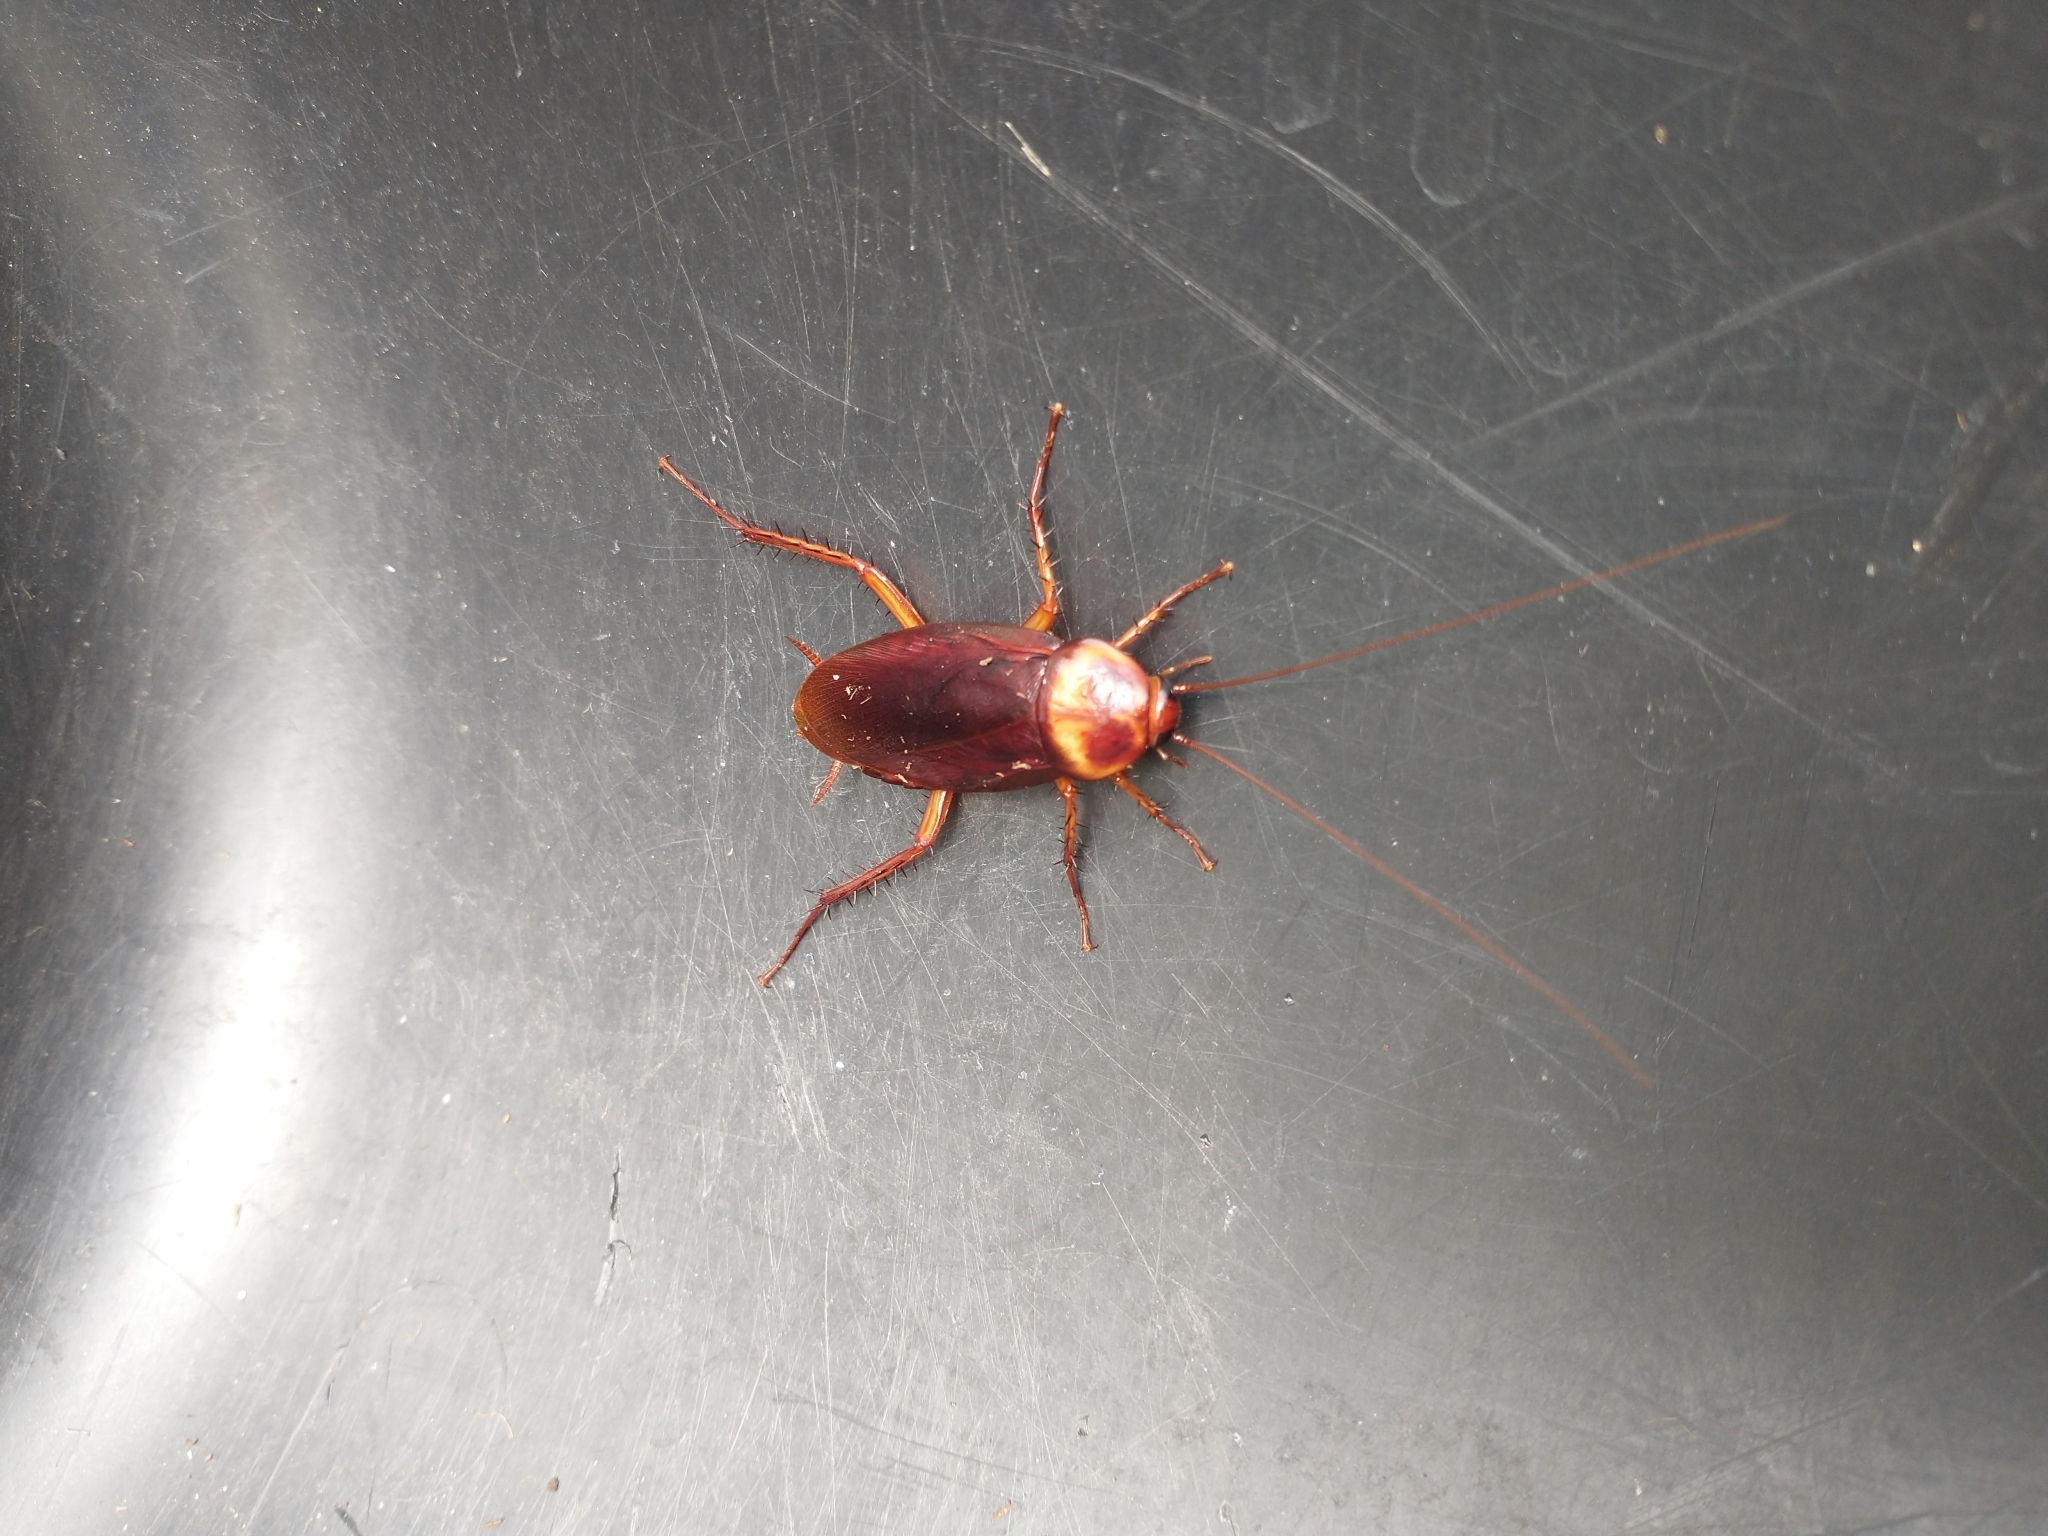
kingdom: Animalia
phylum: Arthropoda
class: Insecta
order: Blattodea
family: Blattidae
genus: Periplaneta
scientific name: Periplaneta americana
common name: American cockroach
